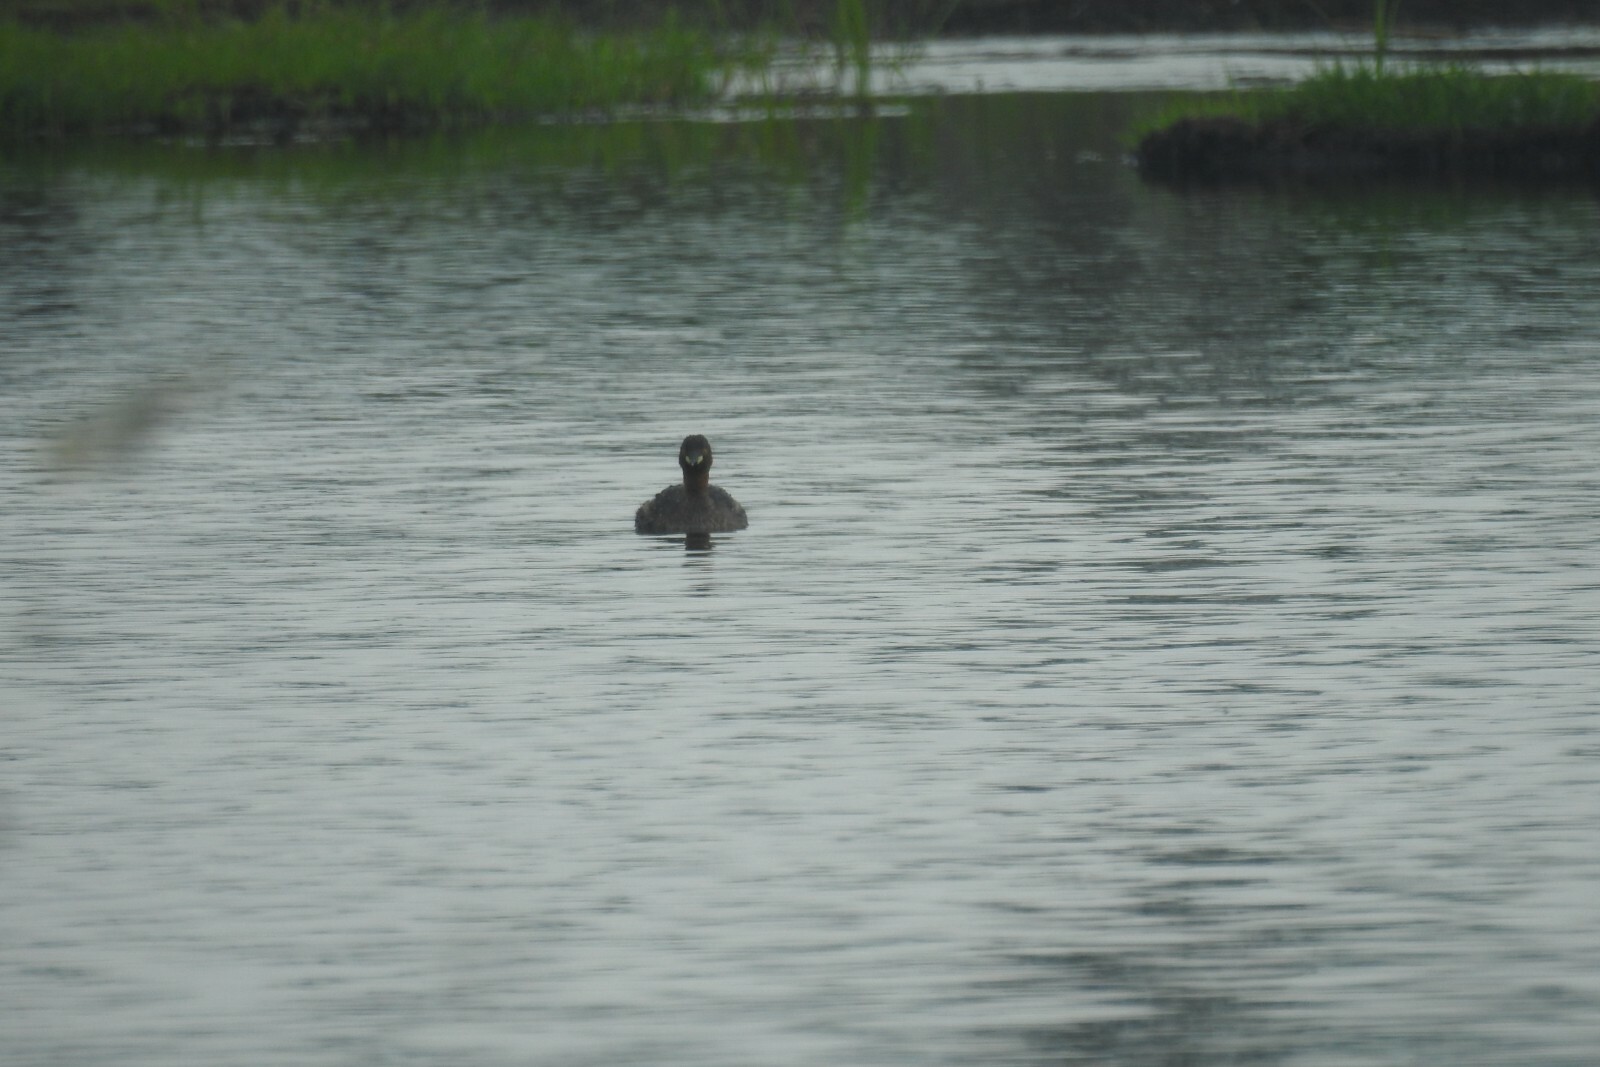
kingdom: Animalia
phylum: Chordata
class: Aves
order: Podicipediformes
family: Podicipedidae
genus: Tachybaptus
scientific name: Tachybaptus ruficollis
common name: Little grebe
